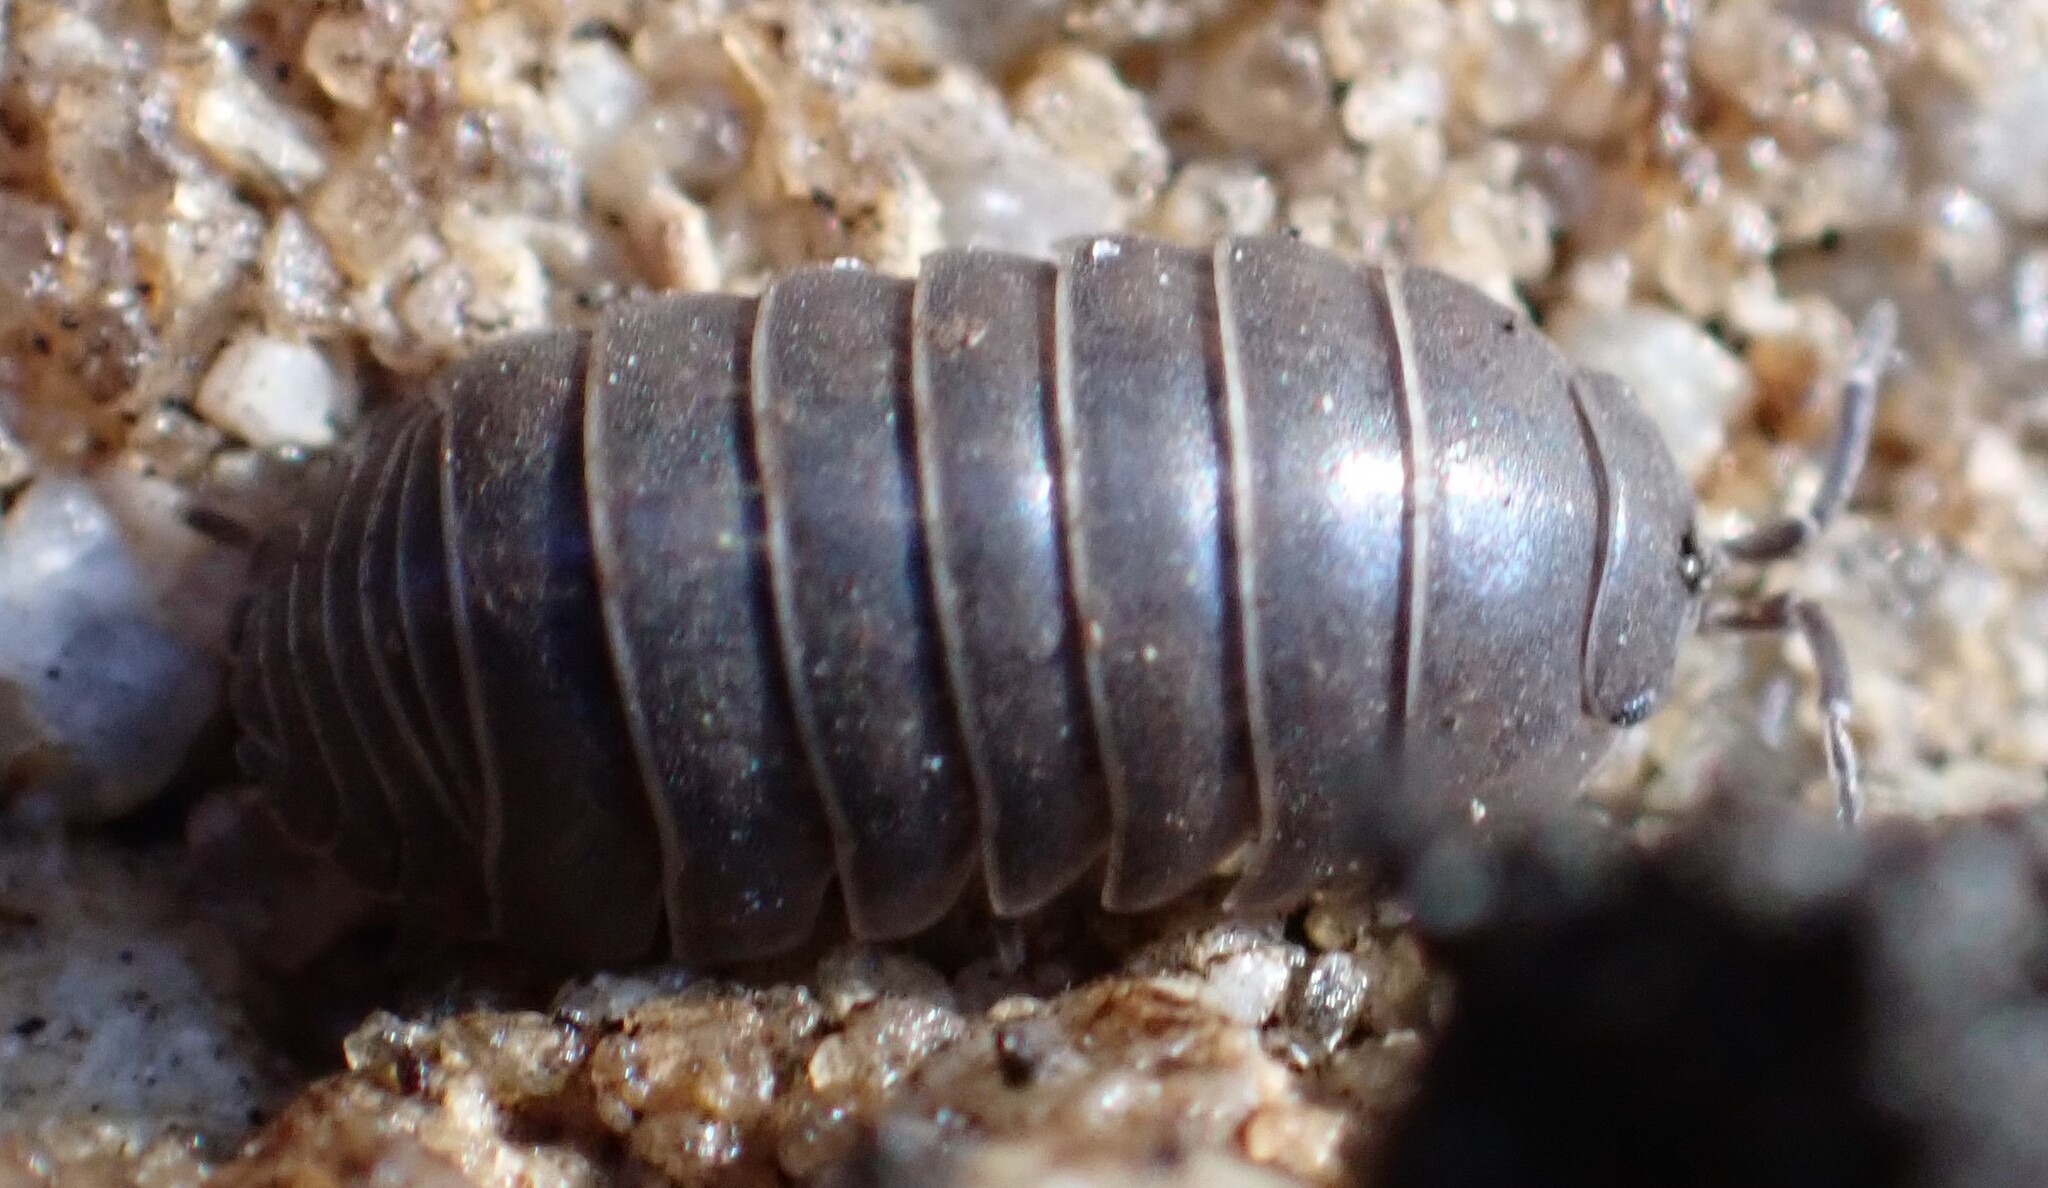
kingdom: Animalia
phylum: Arthropoda
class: Malacostraca
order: Isopoda
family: Armadillidiidae
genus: Armadillidium
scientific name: Armadillidium vulgare
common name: Common pill woodlouse
